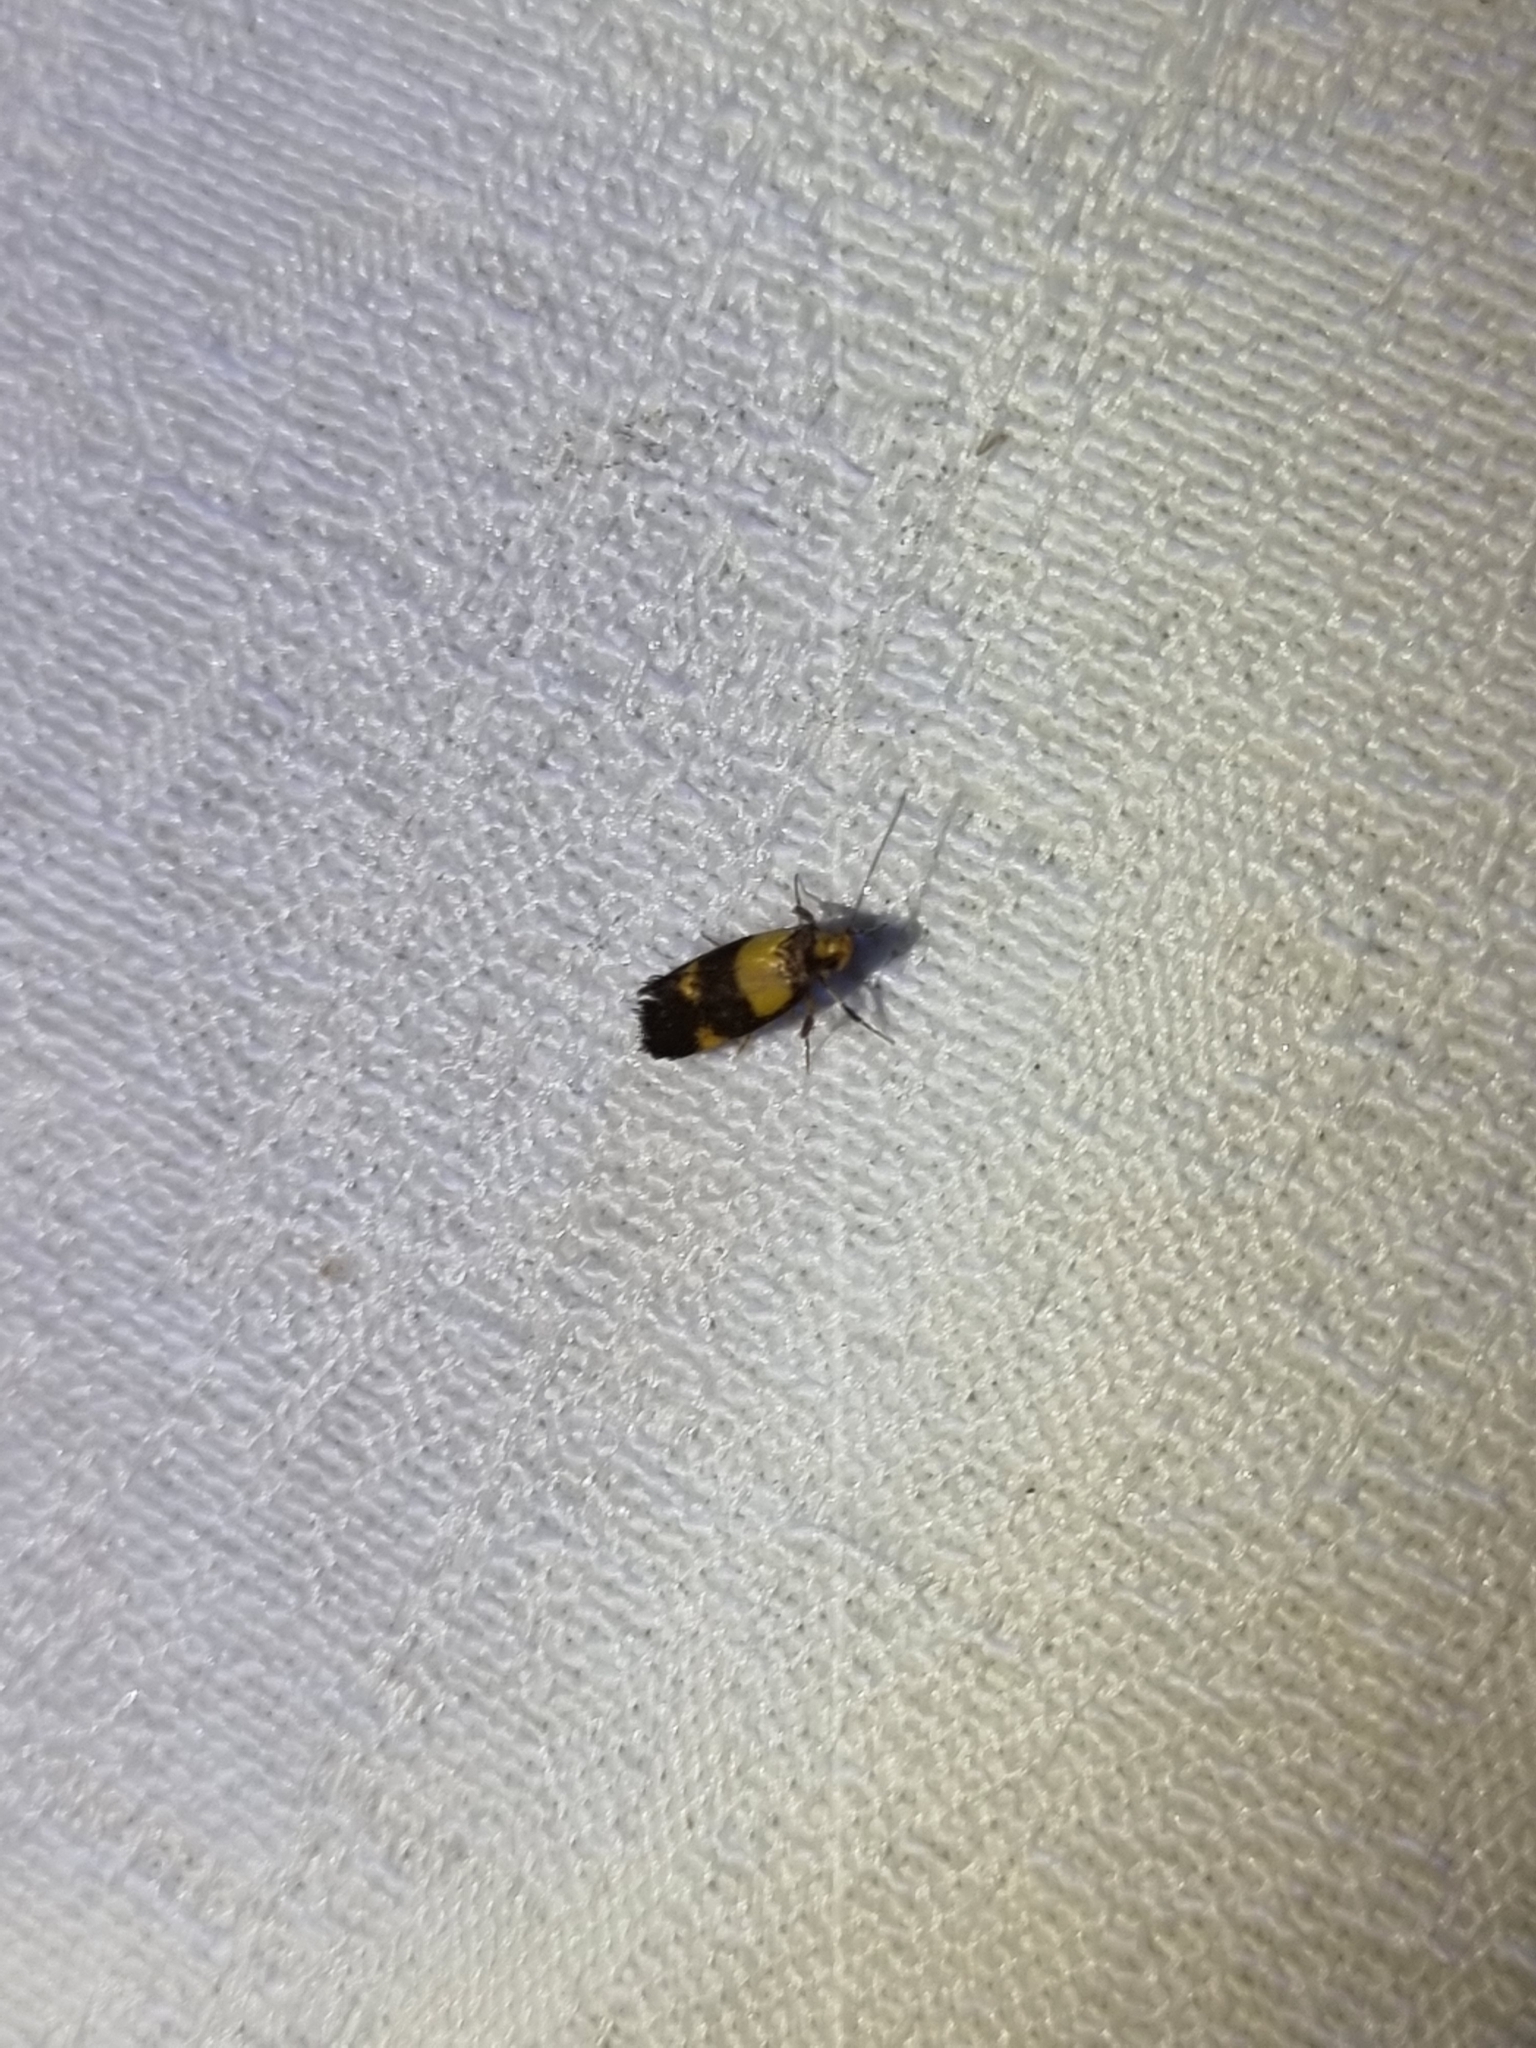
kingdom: Animalia
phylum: Arthropoda
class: Insecta
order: Lepidoptera
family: Oecophoridae
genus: Enchronista
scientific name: Enchronista proximella
